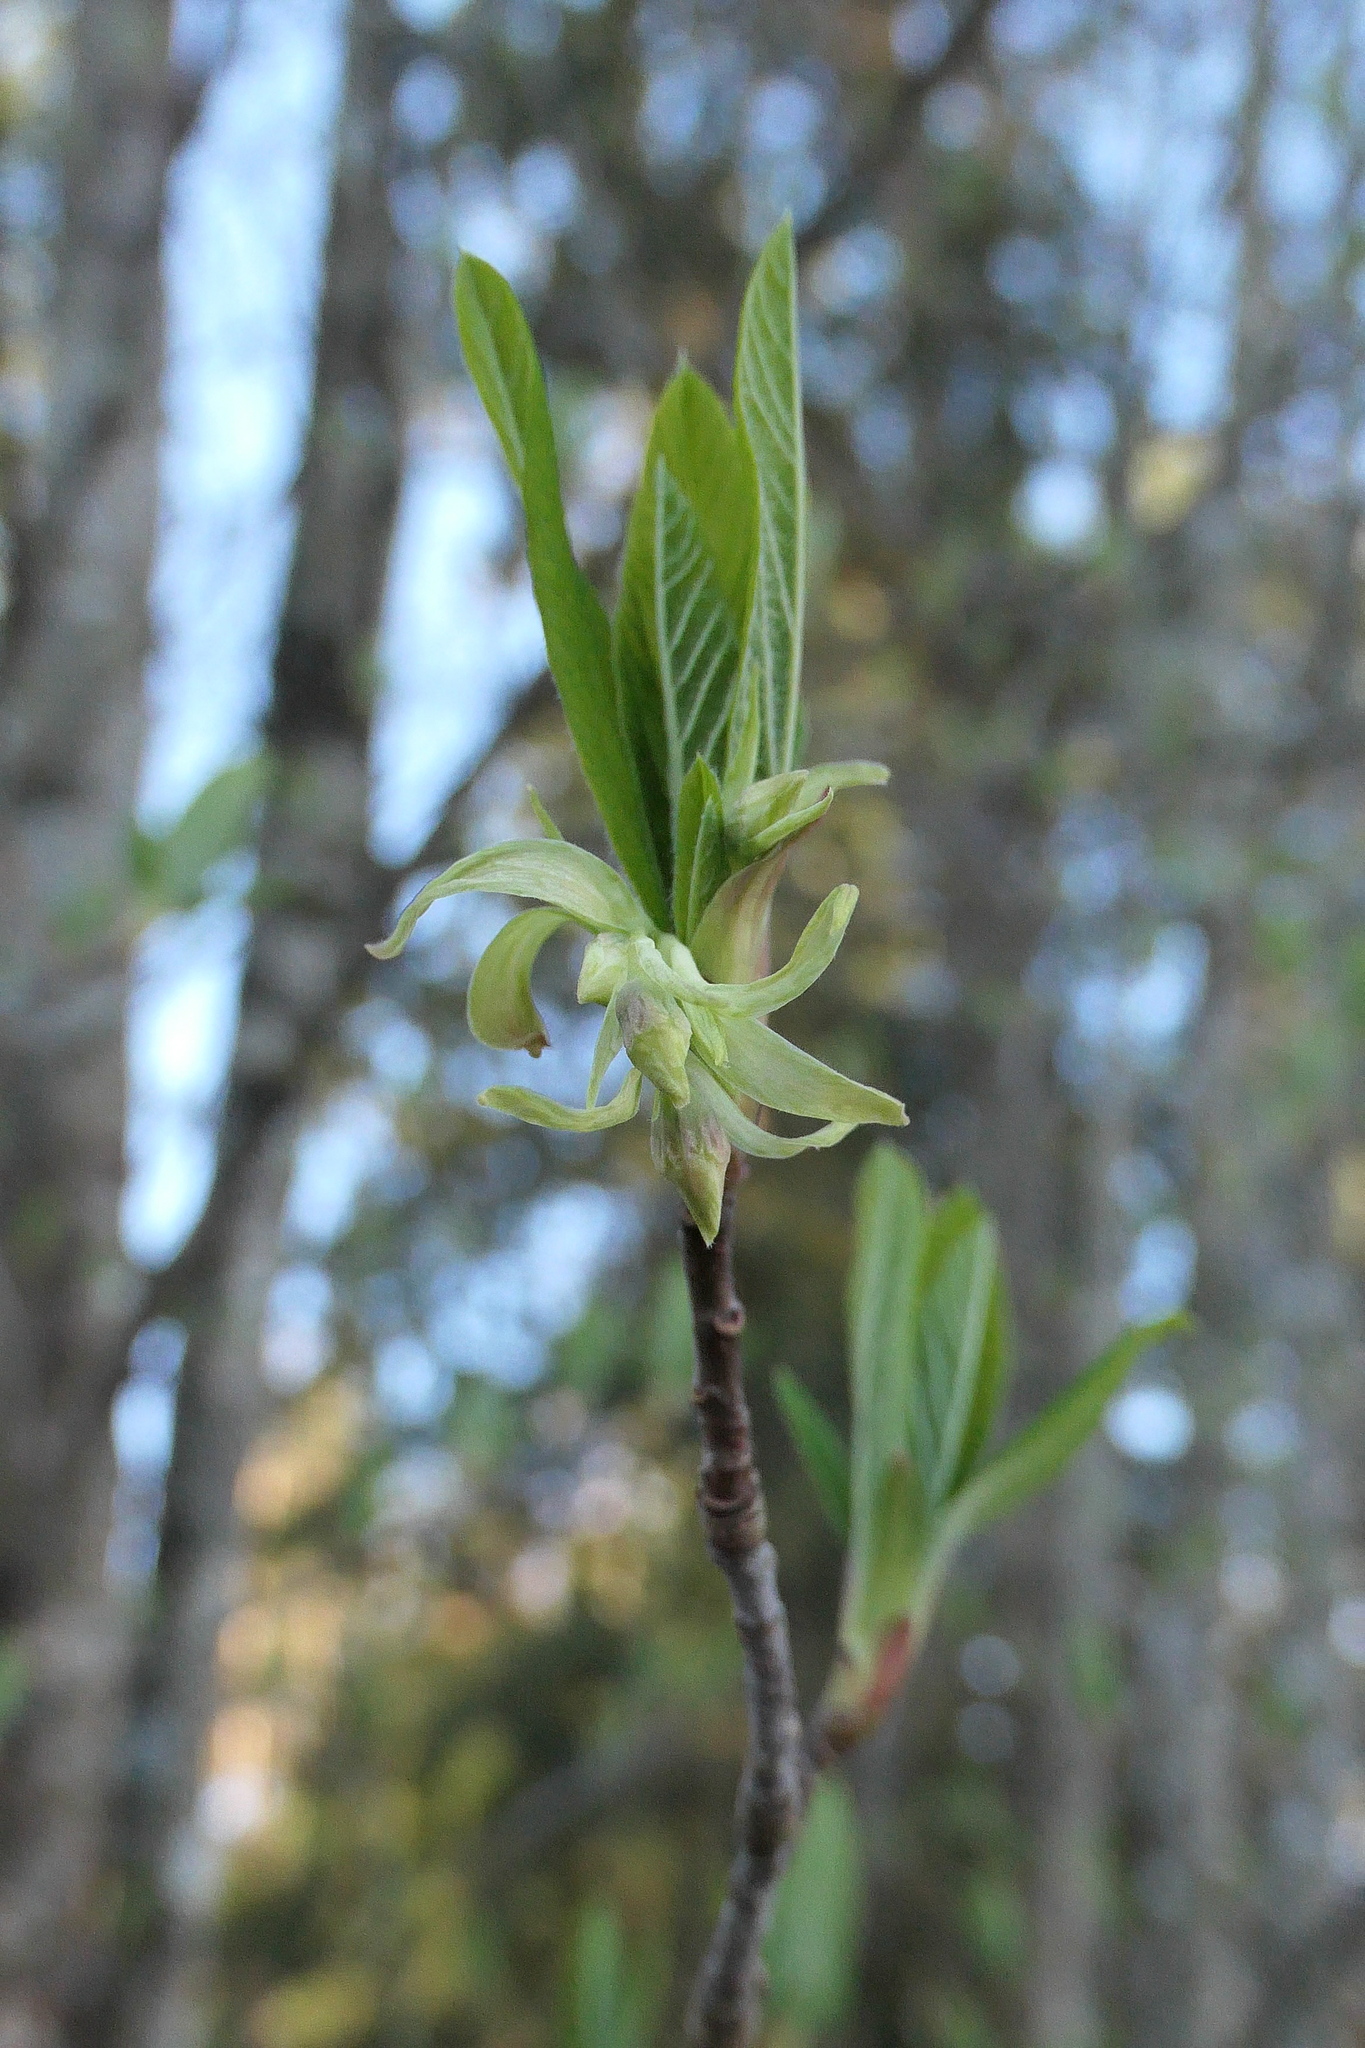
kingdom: Plantae
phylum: Tracheophyta
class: Magnoliopsida
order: Rosales
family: Rosaceae
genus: Oemleria
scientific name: Oemleria cerasiformis
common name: Osoberry
